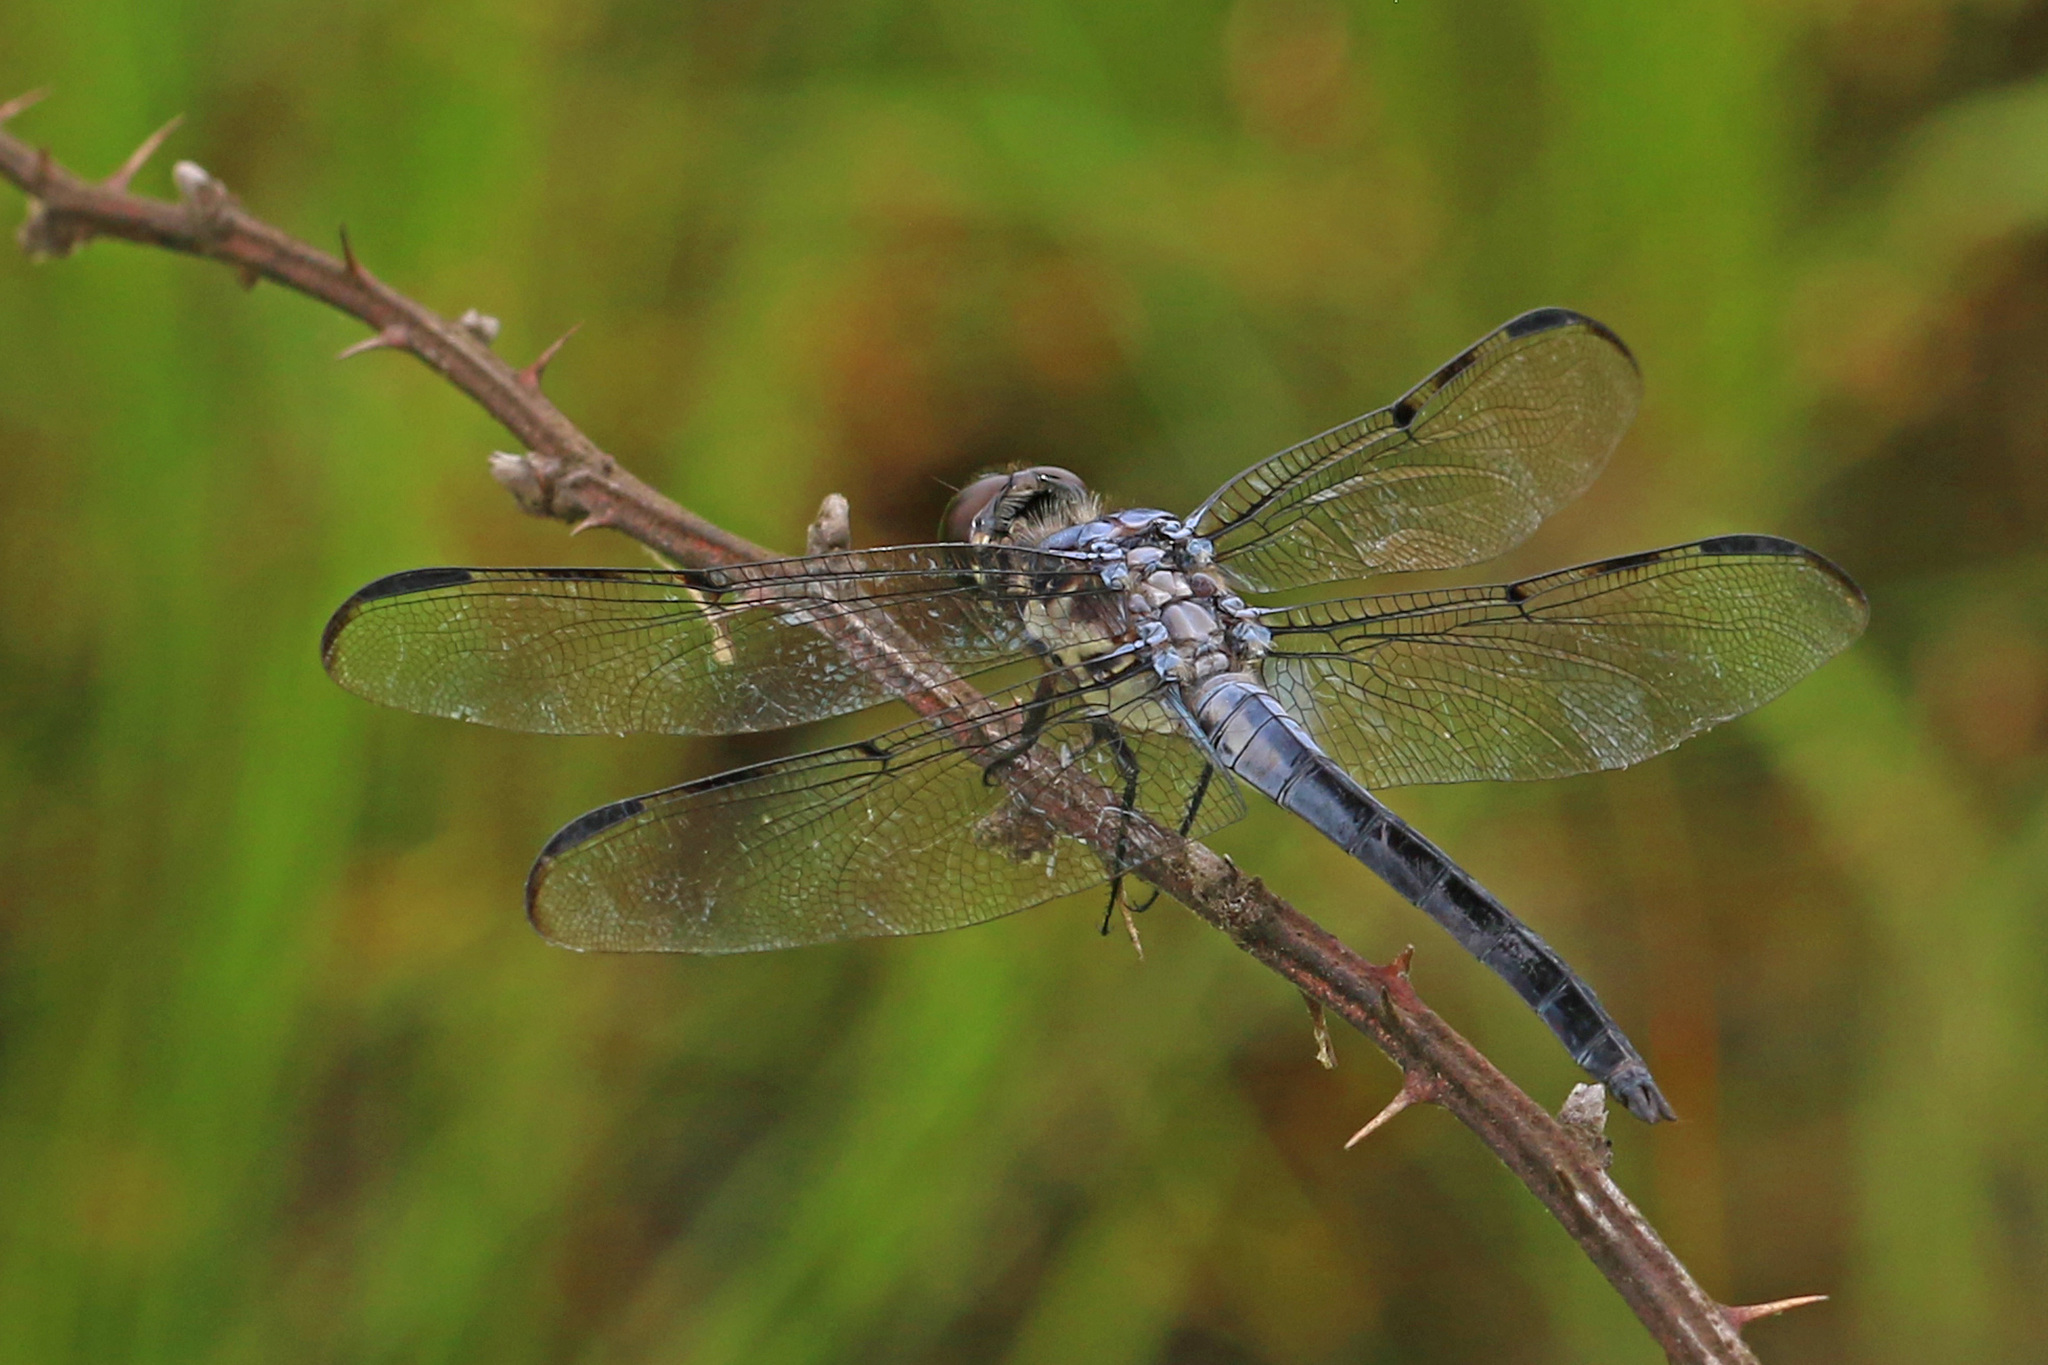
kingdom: Animalia
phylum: Arthropoda
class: Insecta
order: Odonata
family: Libellulidae
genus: Libellula
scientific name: Libellula axilena
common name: Bar-winged skimmer
